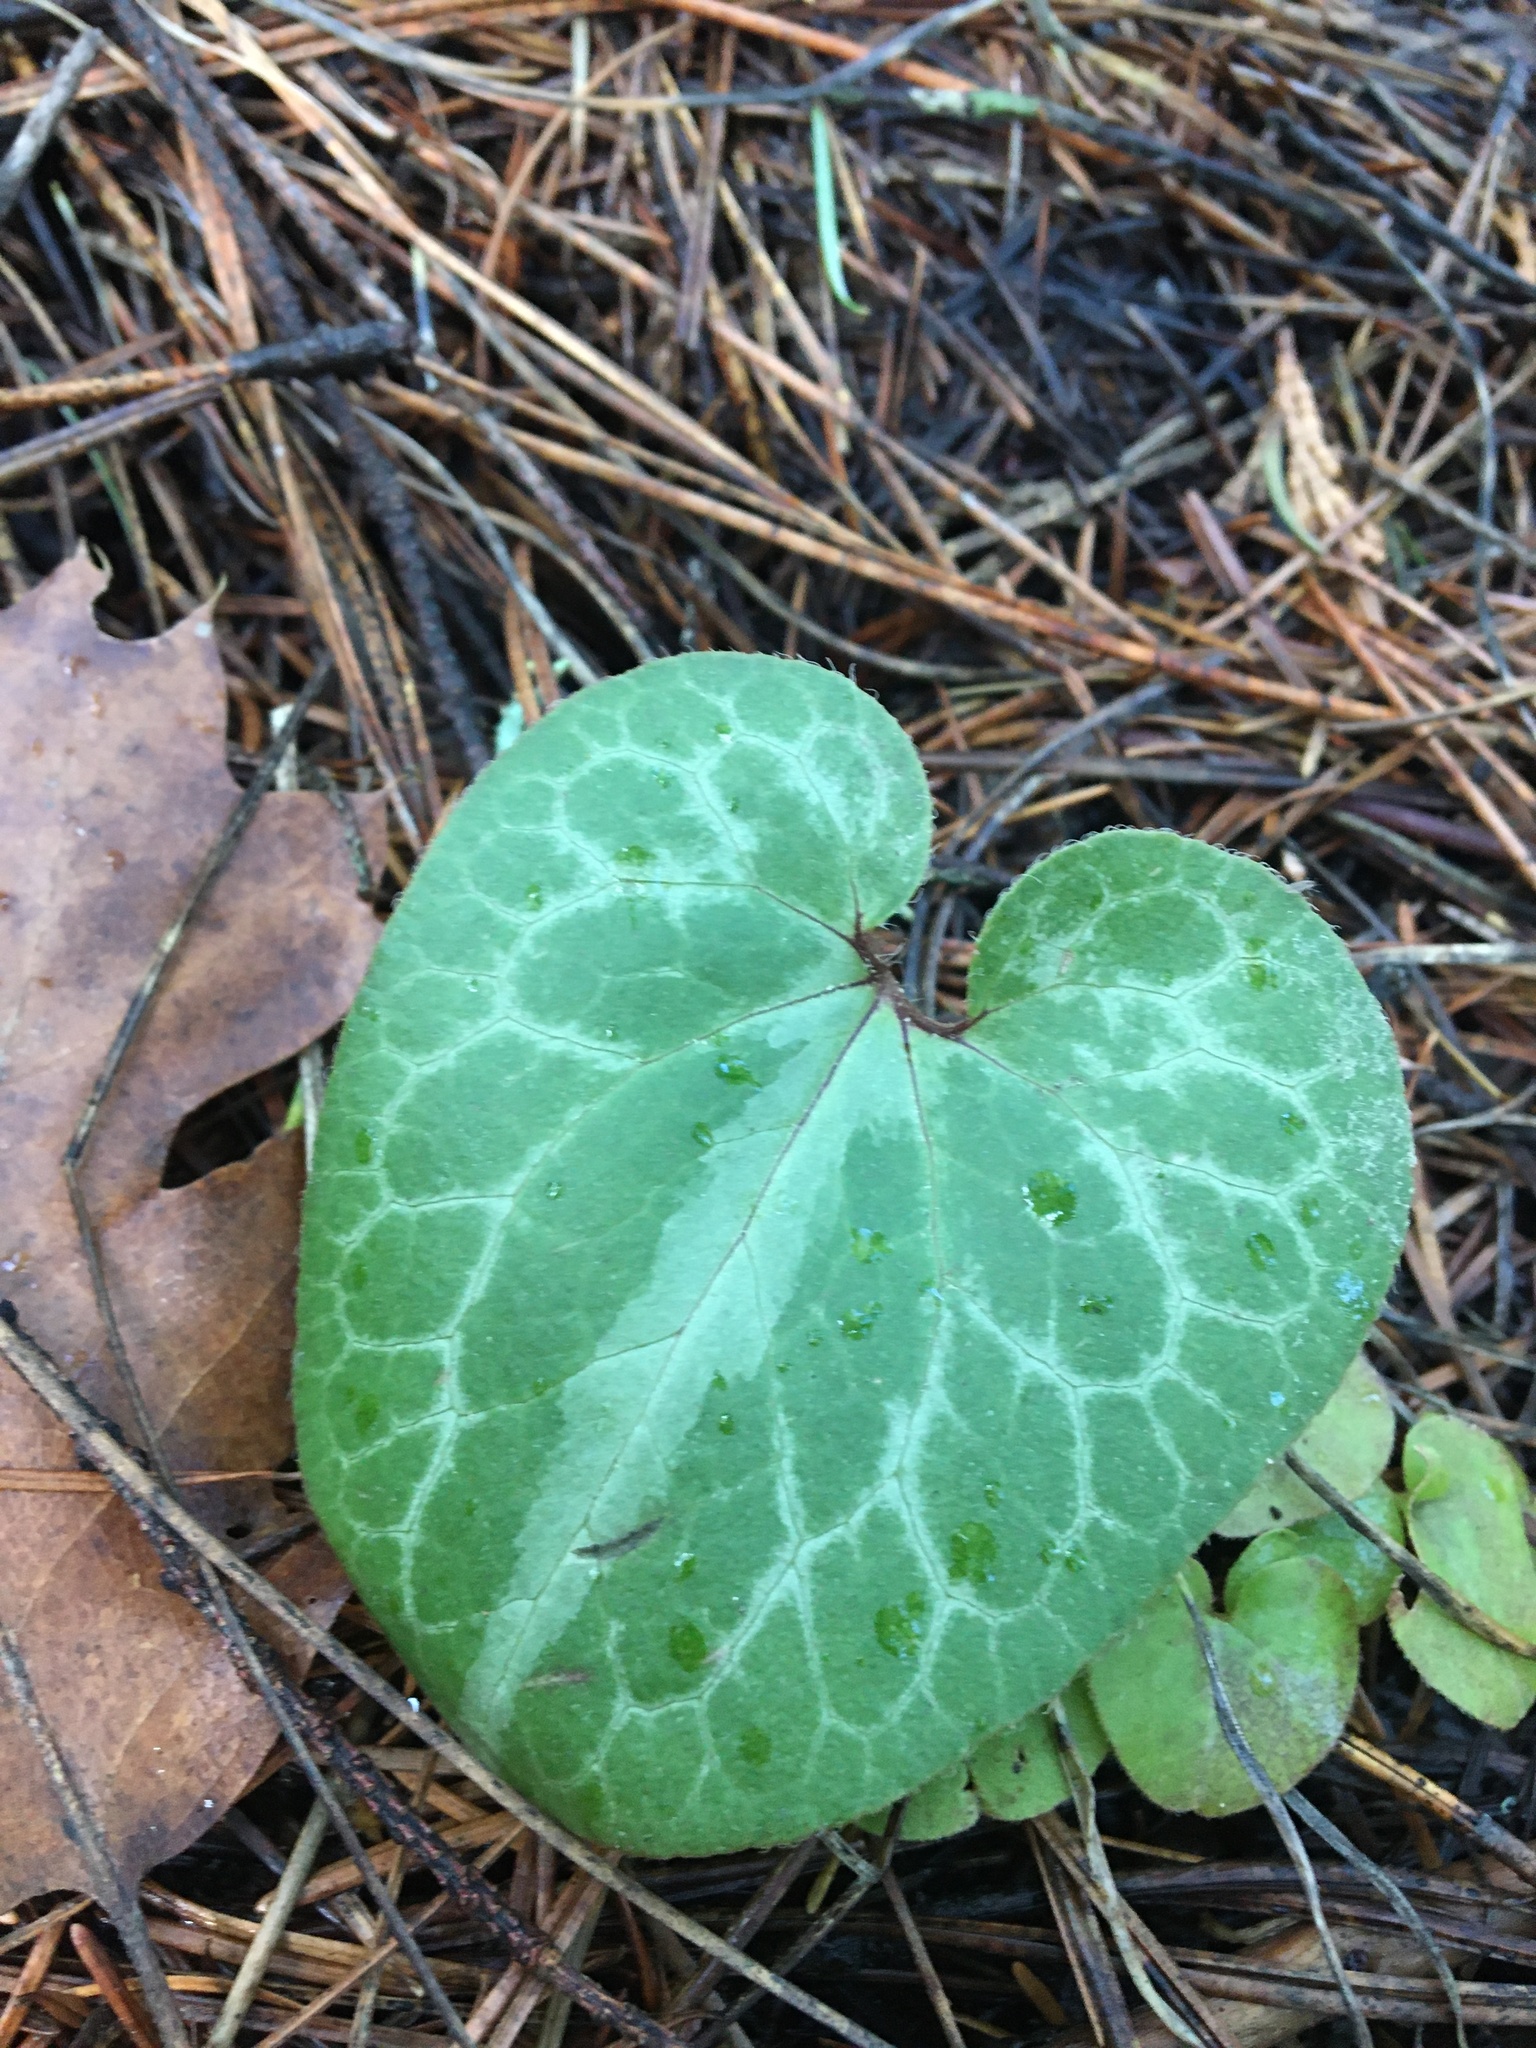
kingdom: Plantae
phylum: Tracheophyta
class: Magnoliopsida
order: Piperales
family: Aristolochiaceae
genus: Asarum
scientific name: Asarum hartwegii
